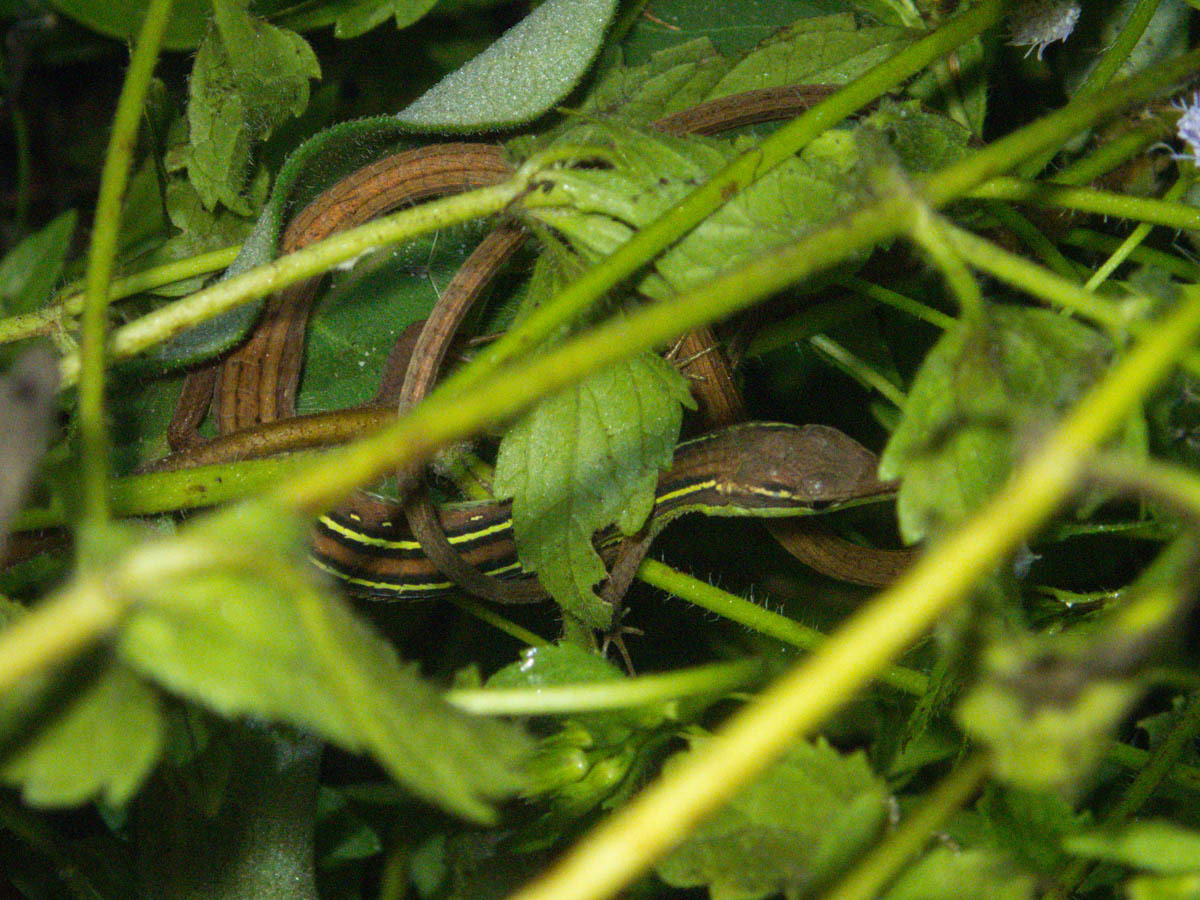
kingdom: Animalia
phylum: Chordata
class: Squamata
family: Lacertidae
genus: Takydromus
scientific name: Takydromus sexlineatus
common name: Asian grass lizard
